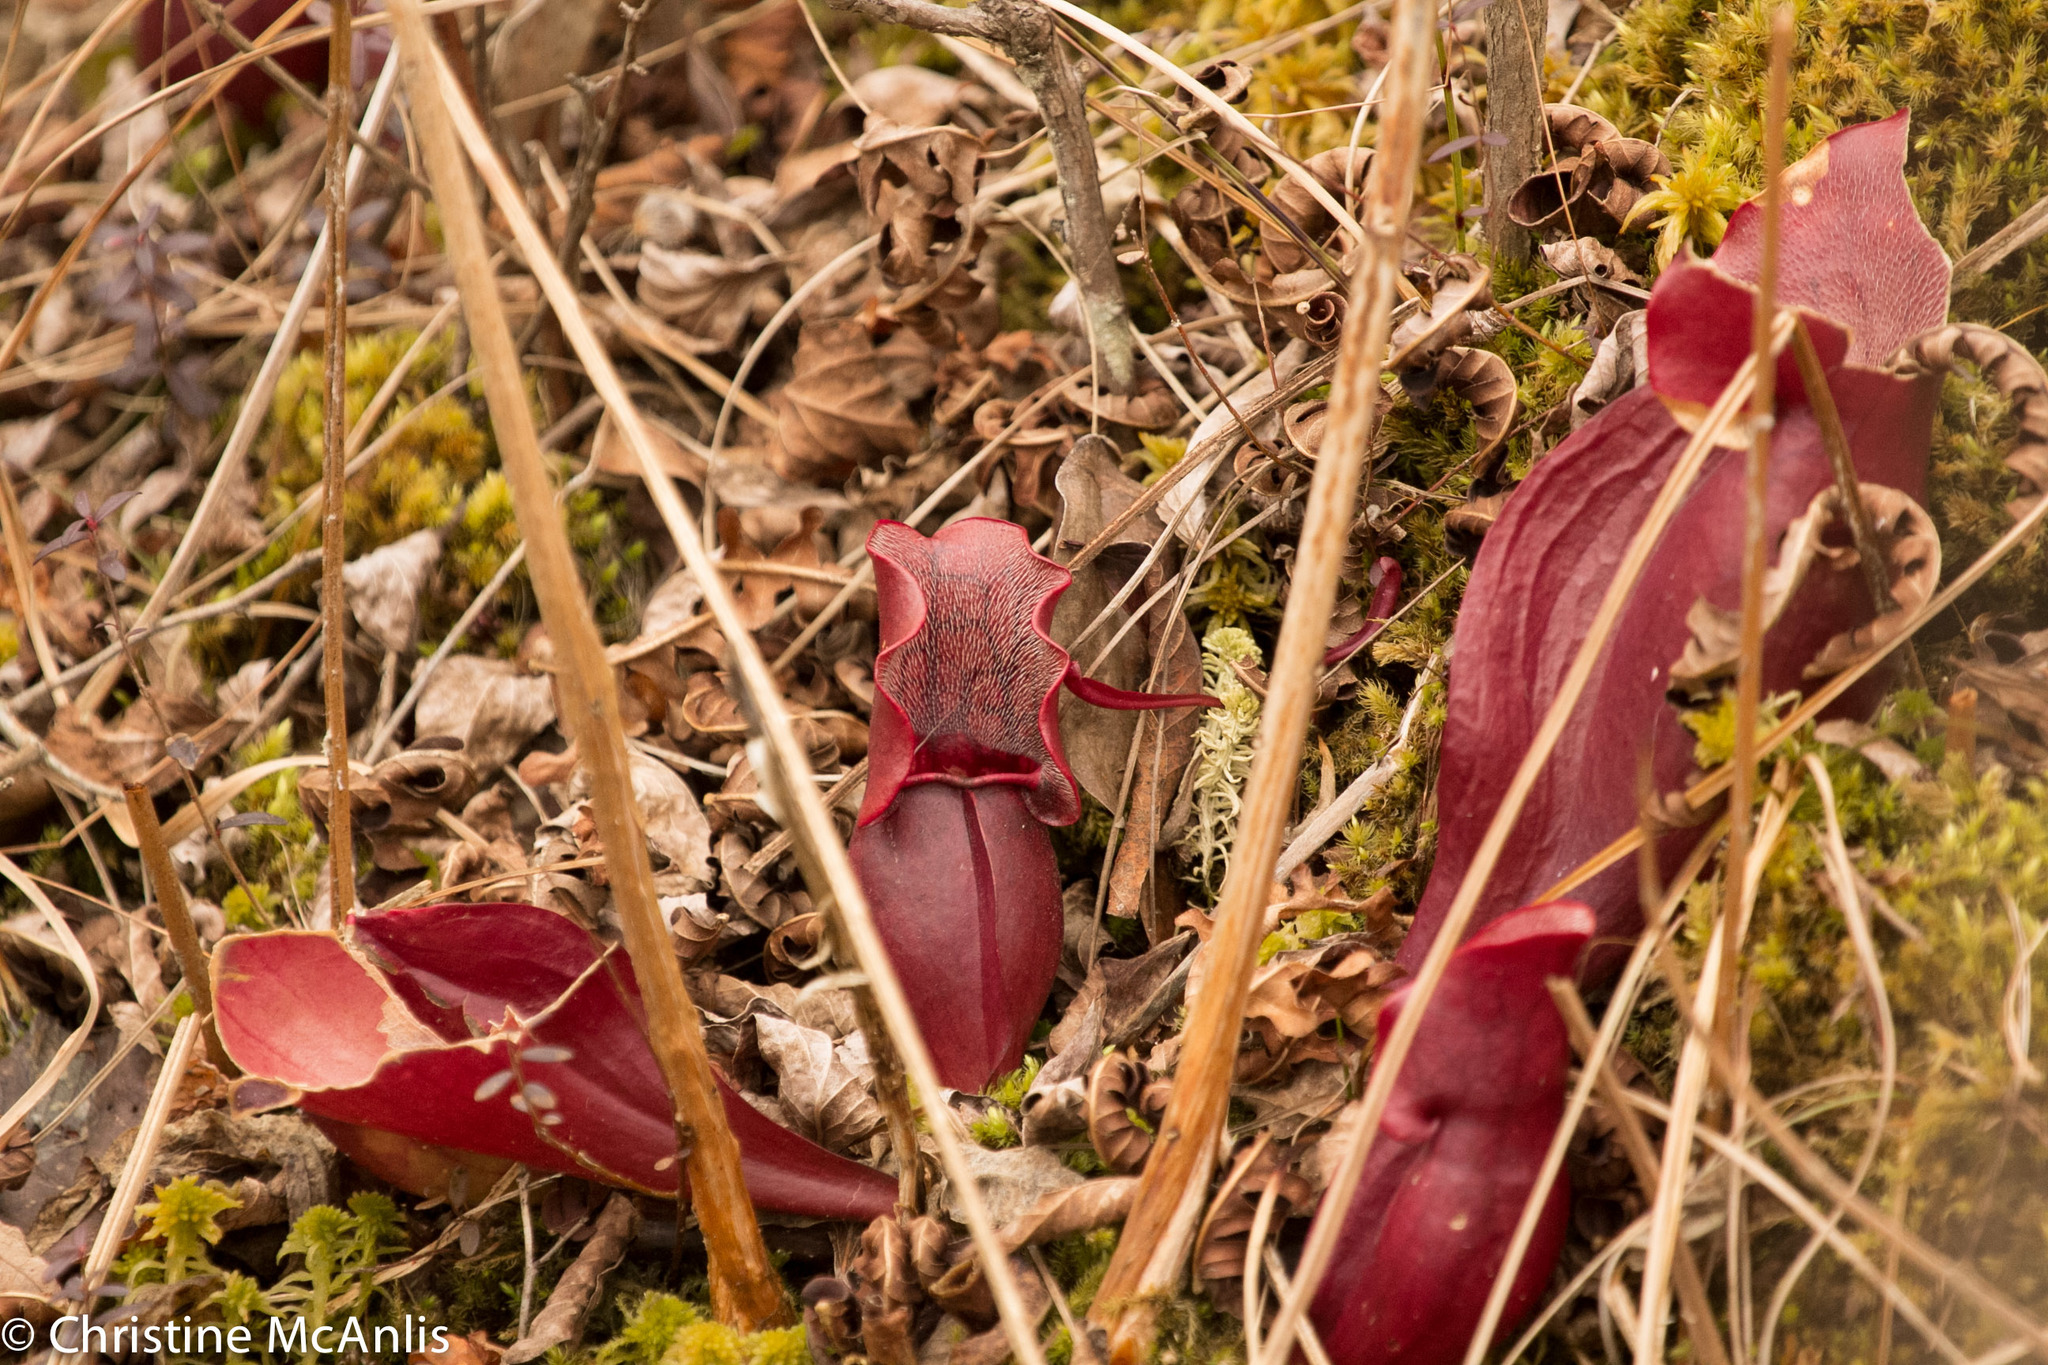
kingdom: Plantae
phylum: Tracheophyta
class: Magnoliopsida
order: Ericales
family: Sarraceniaceae
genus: Sarracenia
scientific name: Sarracenia purpurea
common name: Pitcherplant
